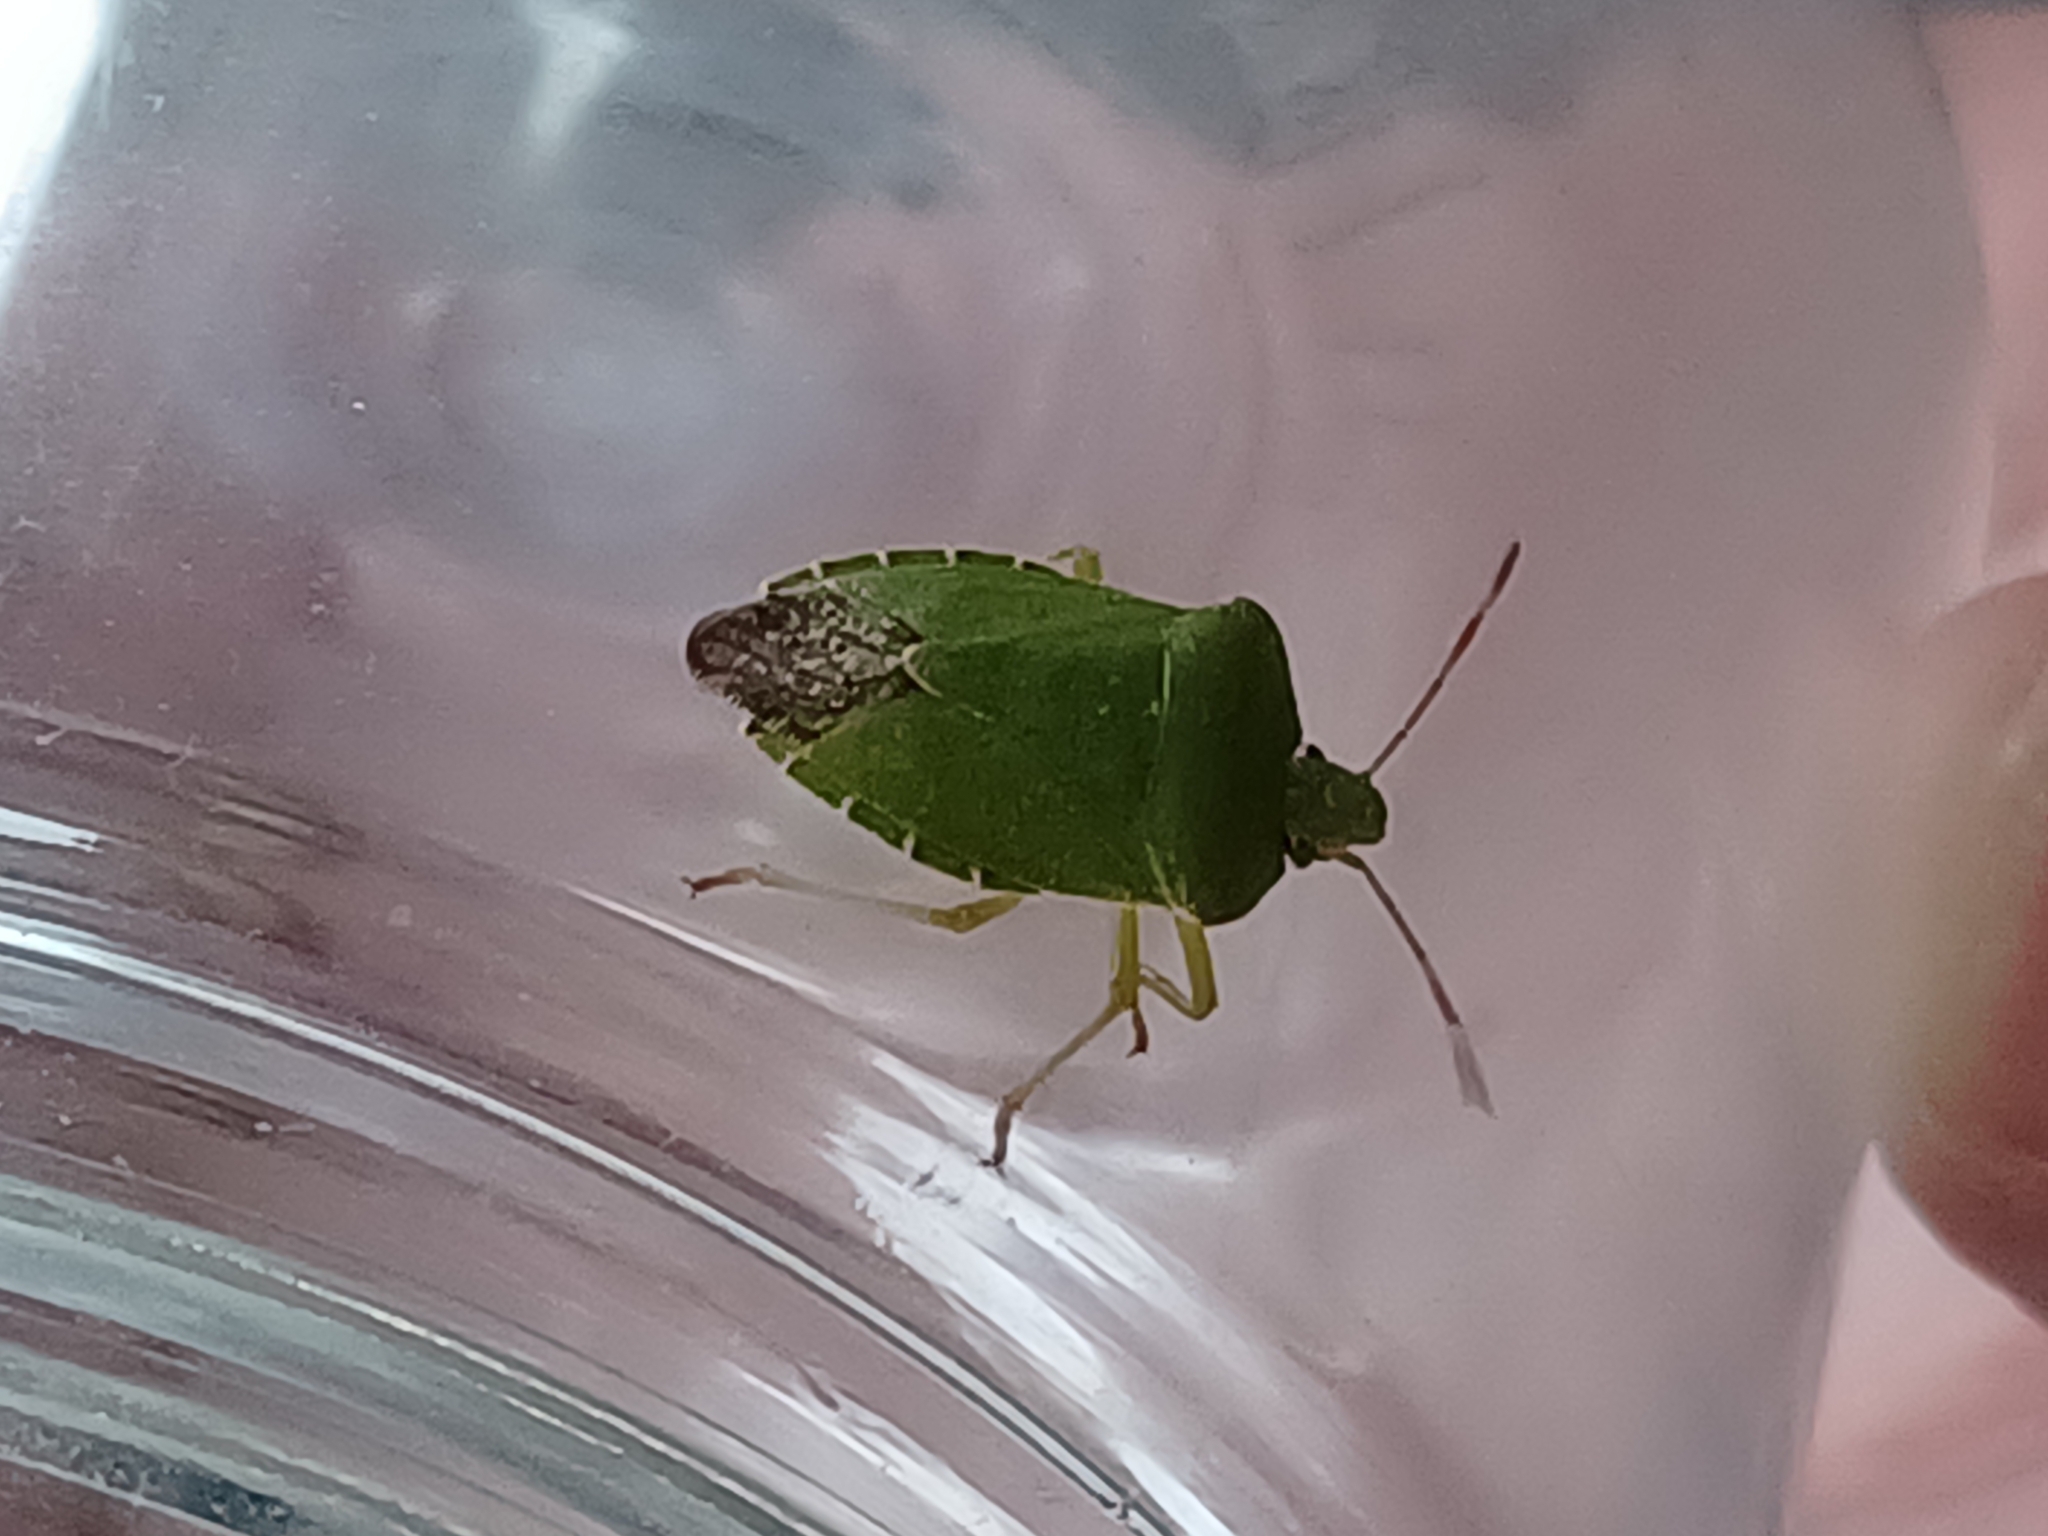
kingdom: Animalia
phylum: Arthropoda
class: Insecta
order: Hemiptera
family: Pentatomidae
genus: Palomena
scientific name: Palomena prasina
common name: Green shieldbug
